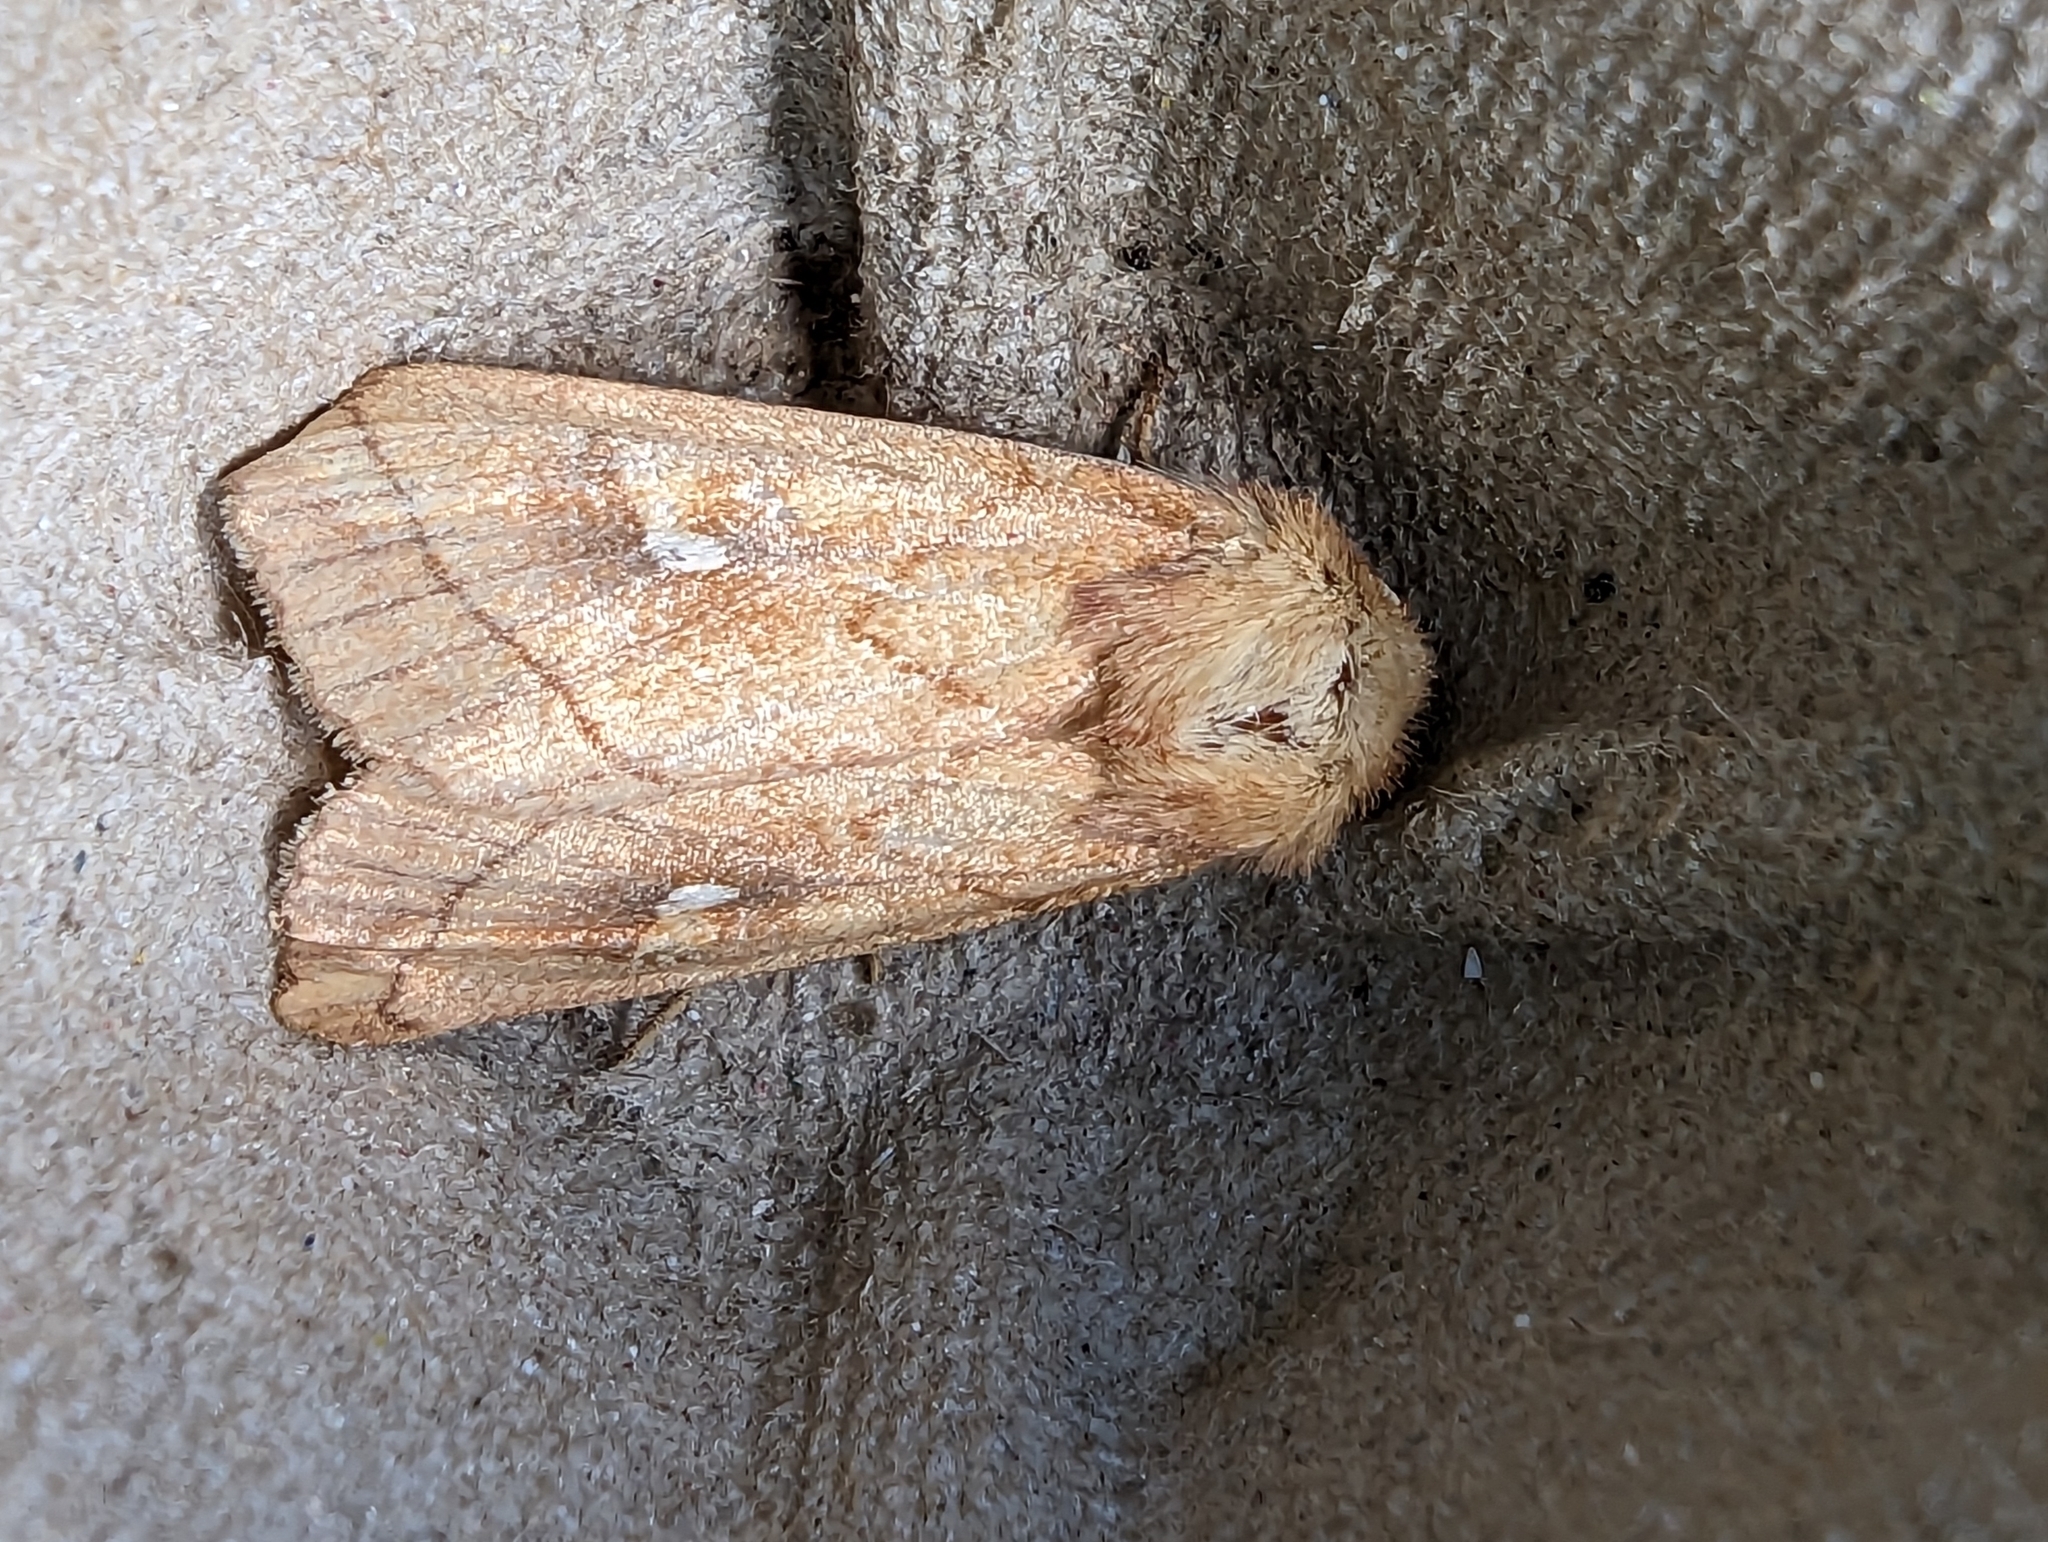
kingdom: Animalia
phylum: Arthropoda
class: Insecta
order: Lepidoptera
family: Noctuidae
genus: Mythimna
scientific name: Mythimna conigera
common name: Brown-line bright-eye
